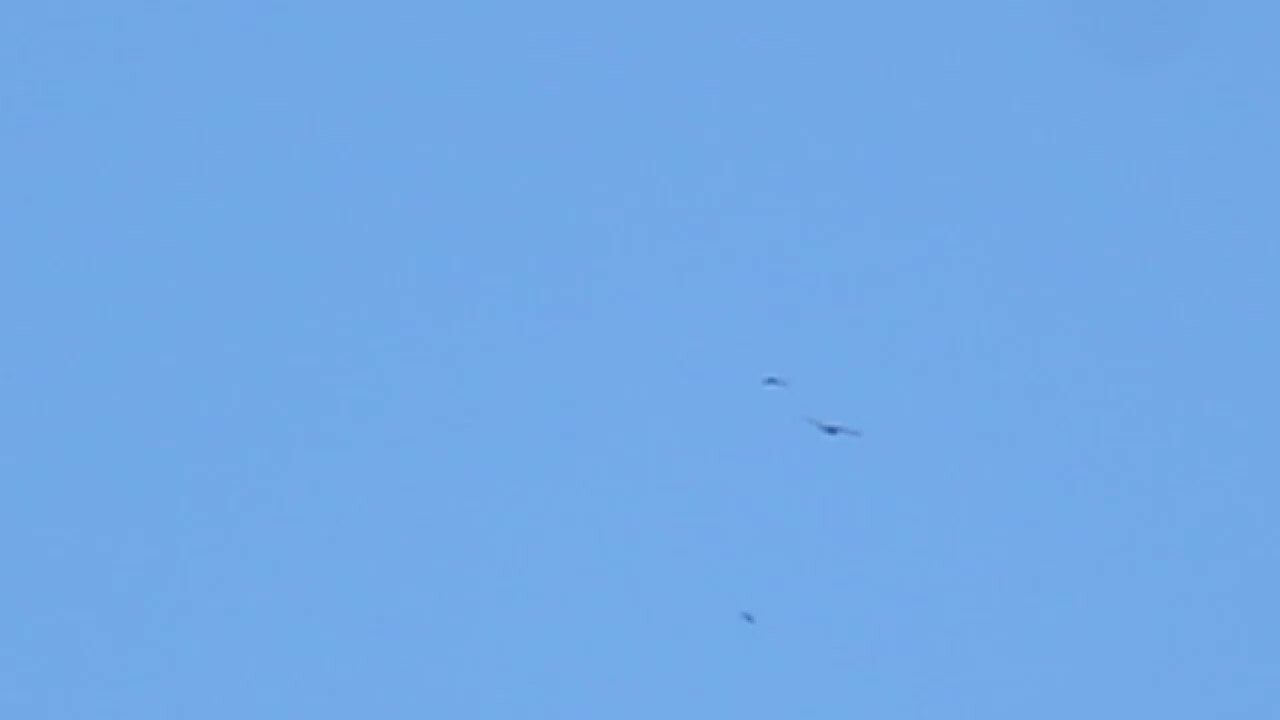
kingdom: Animalia
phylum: Chordata
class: Aves
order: Accipitriformes
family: Accipitridae
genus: Haliaeetus
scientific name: Haliaeetus leucocephalus
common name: Bald eagle
